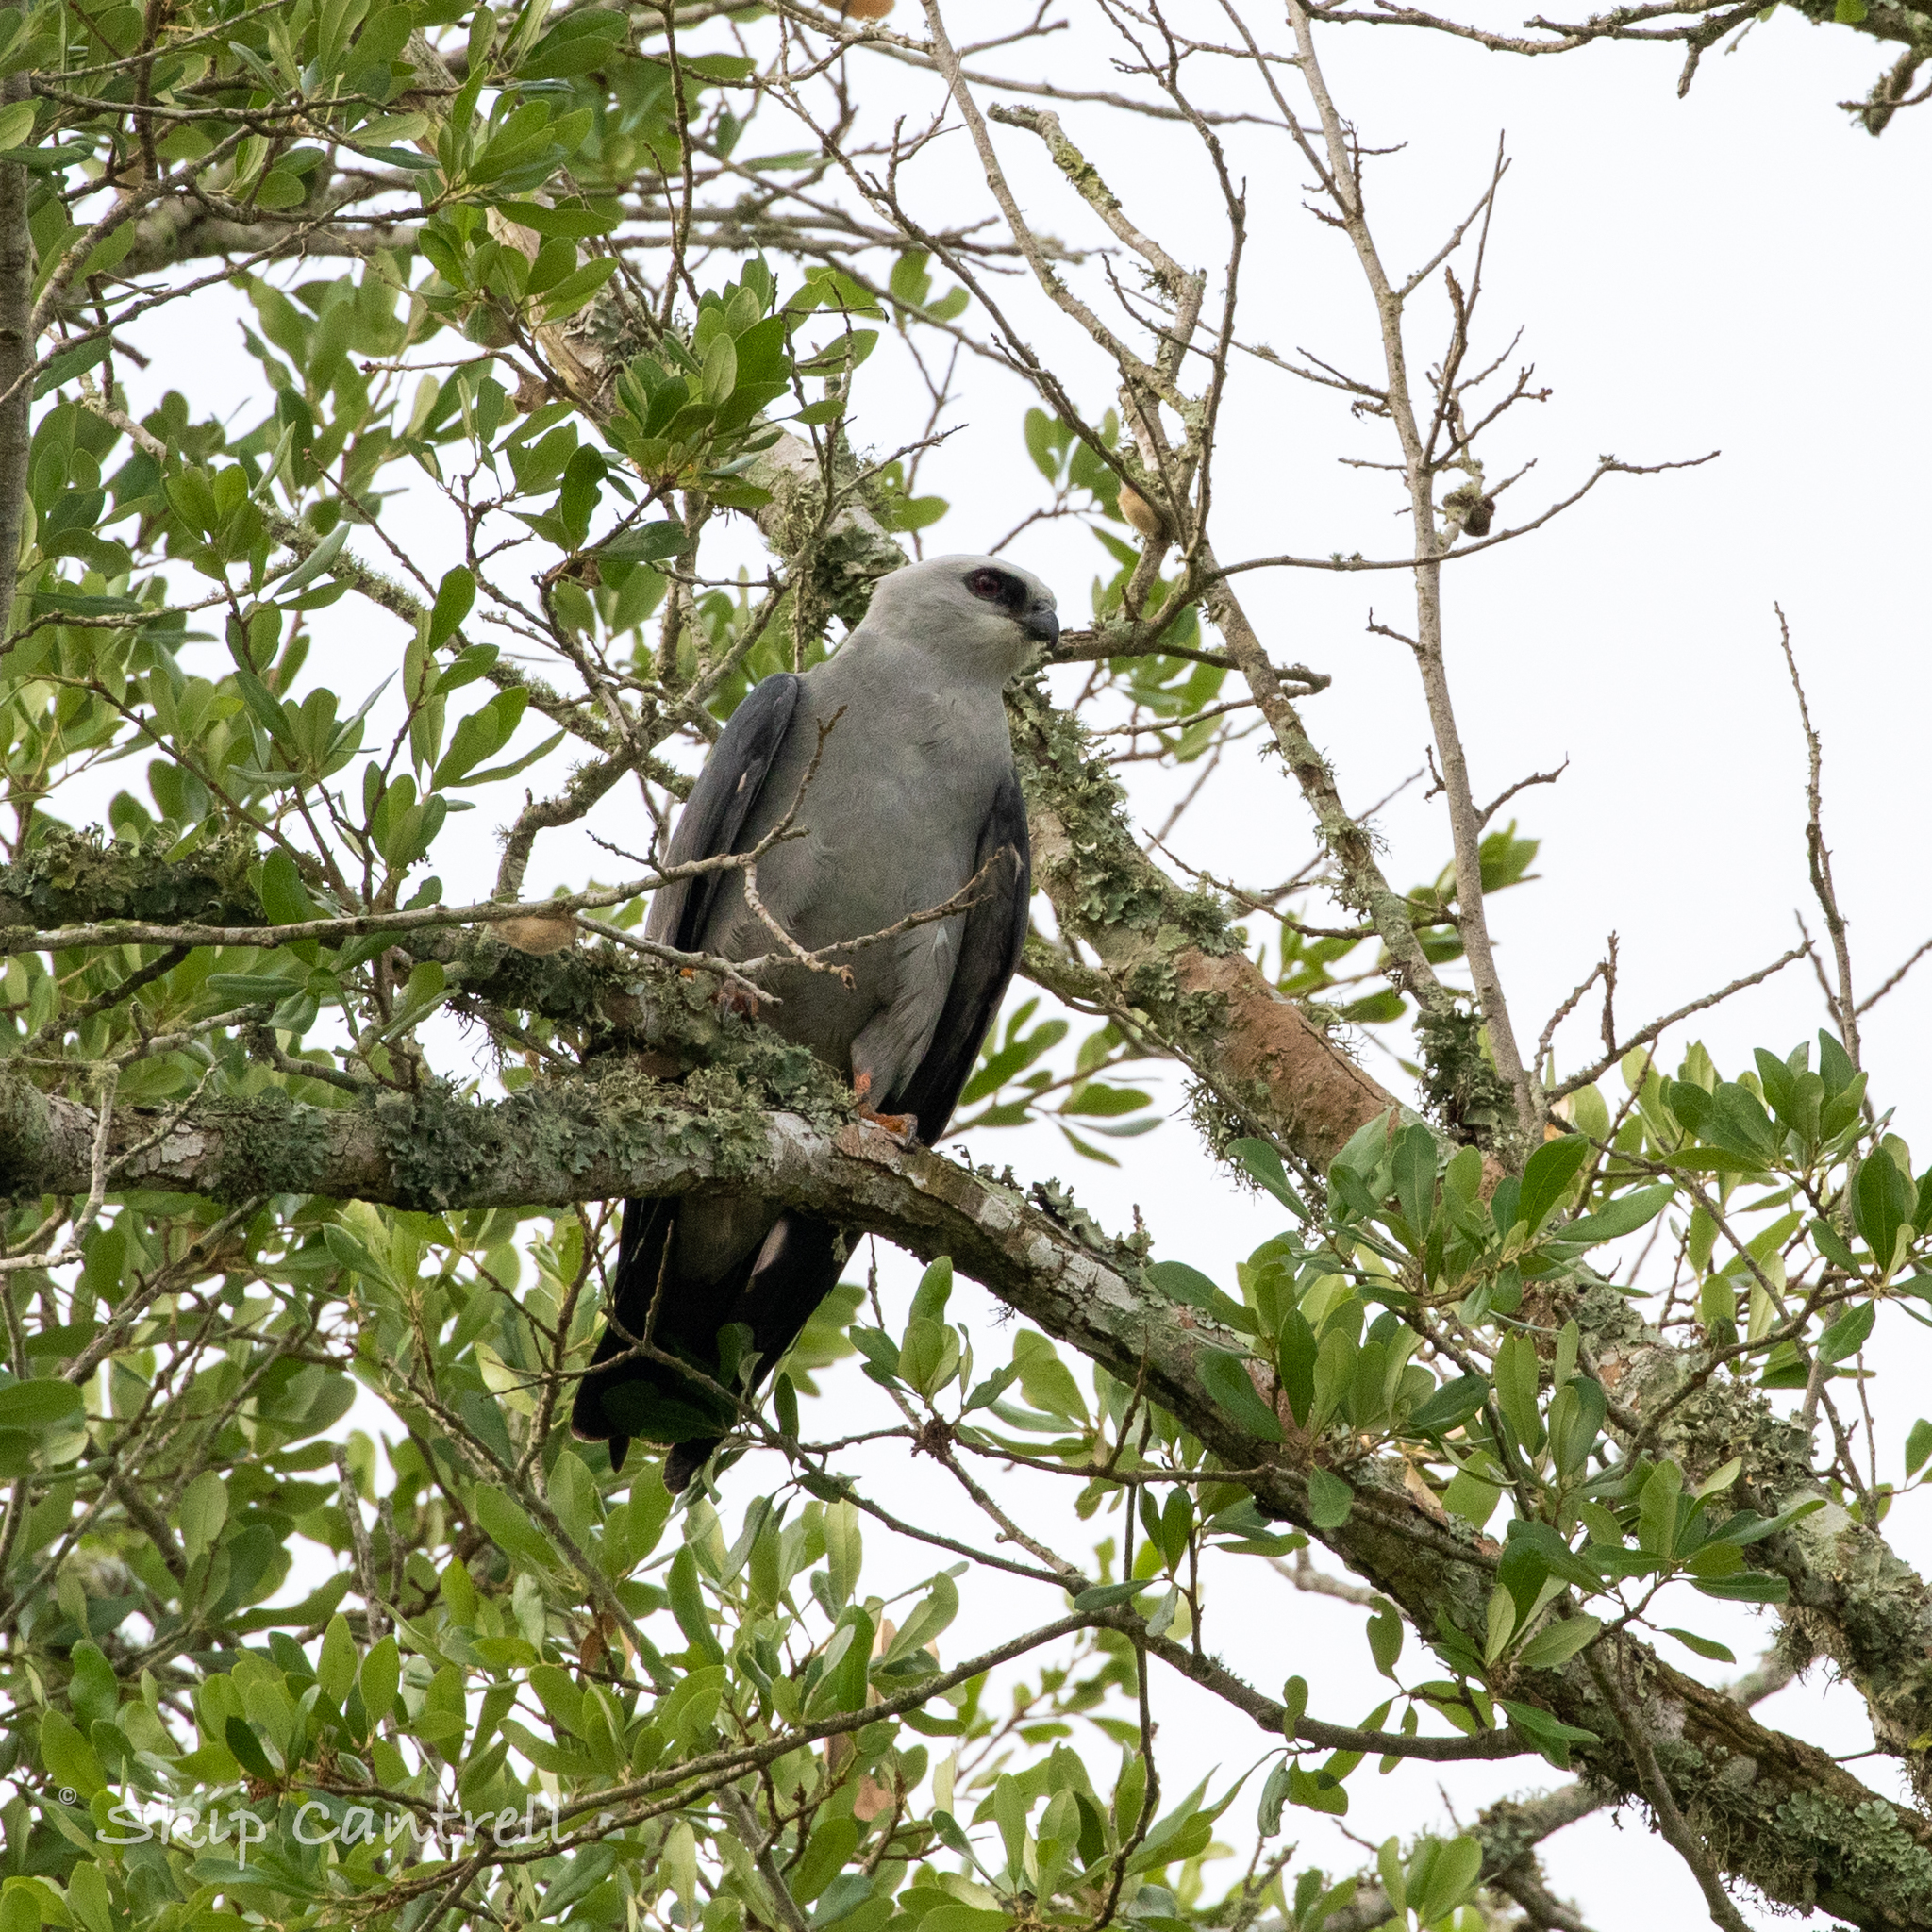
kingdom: Animalia
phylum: Chordata
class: Aves
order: Accipitriformes
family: Accipitridae
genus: Ictinia
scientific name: Ictinia mississippiensis
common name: Mississippi kite
